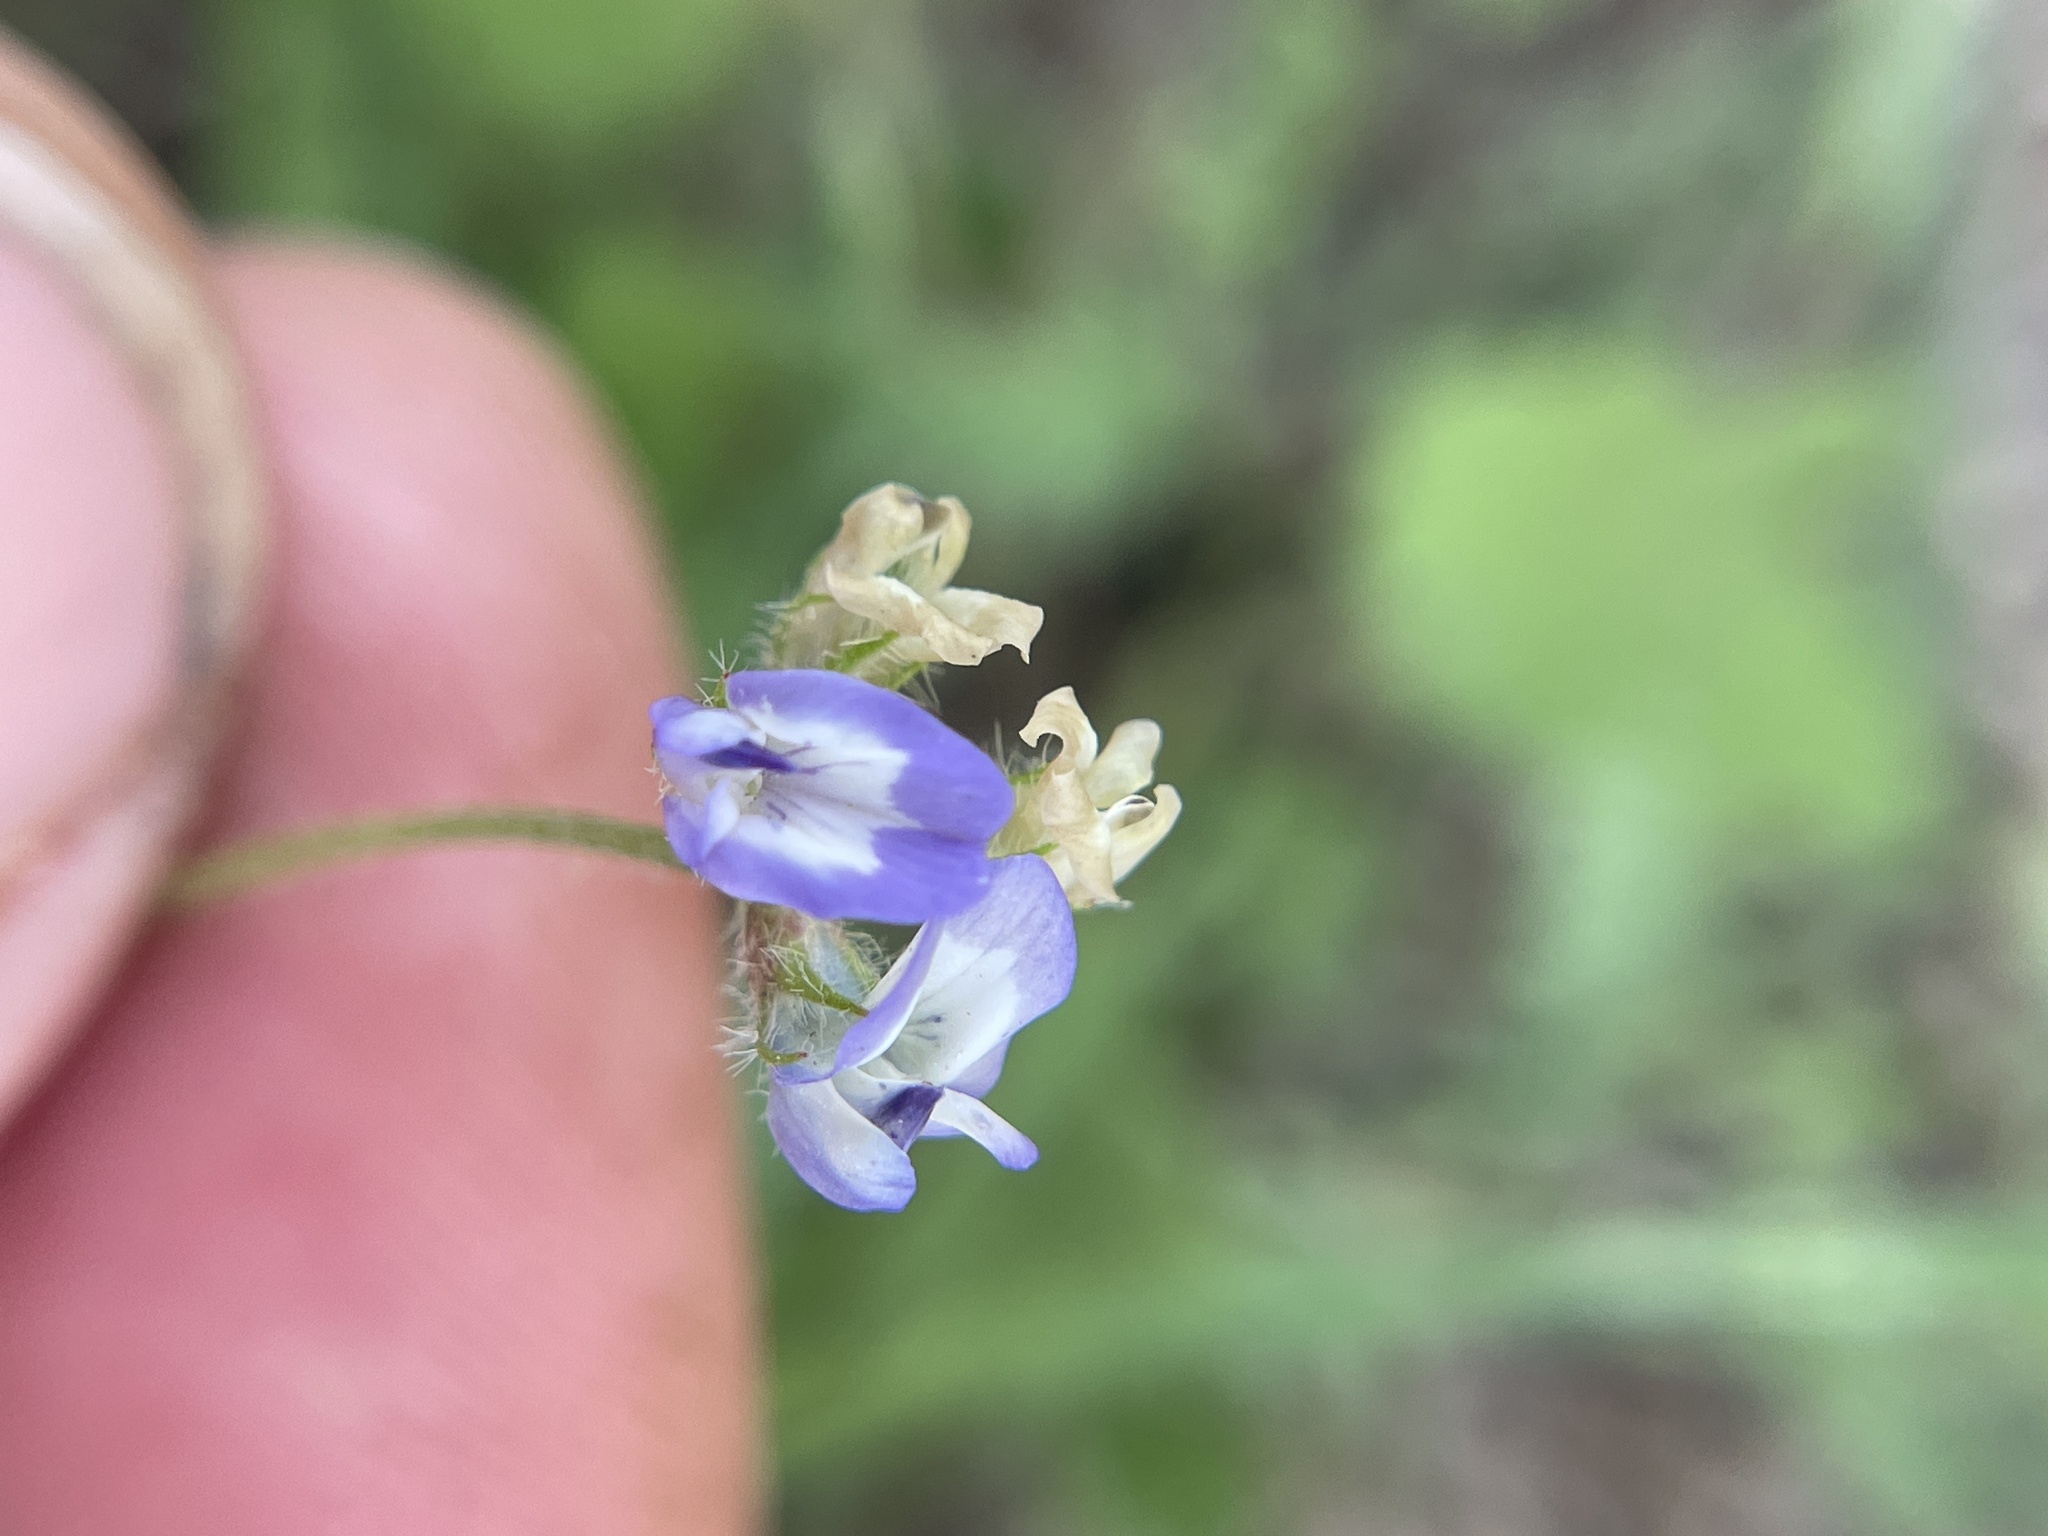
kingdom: Plantae
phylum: Tracheophyta
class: Magnoliopsida
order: Fabales
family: Fabaceae
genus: Astragalus
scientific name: Astragalus nuttallianus
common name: Smallflowered milkvetch
